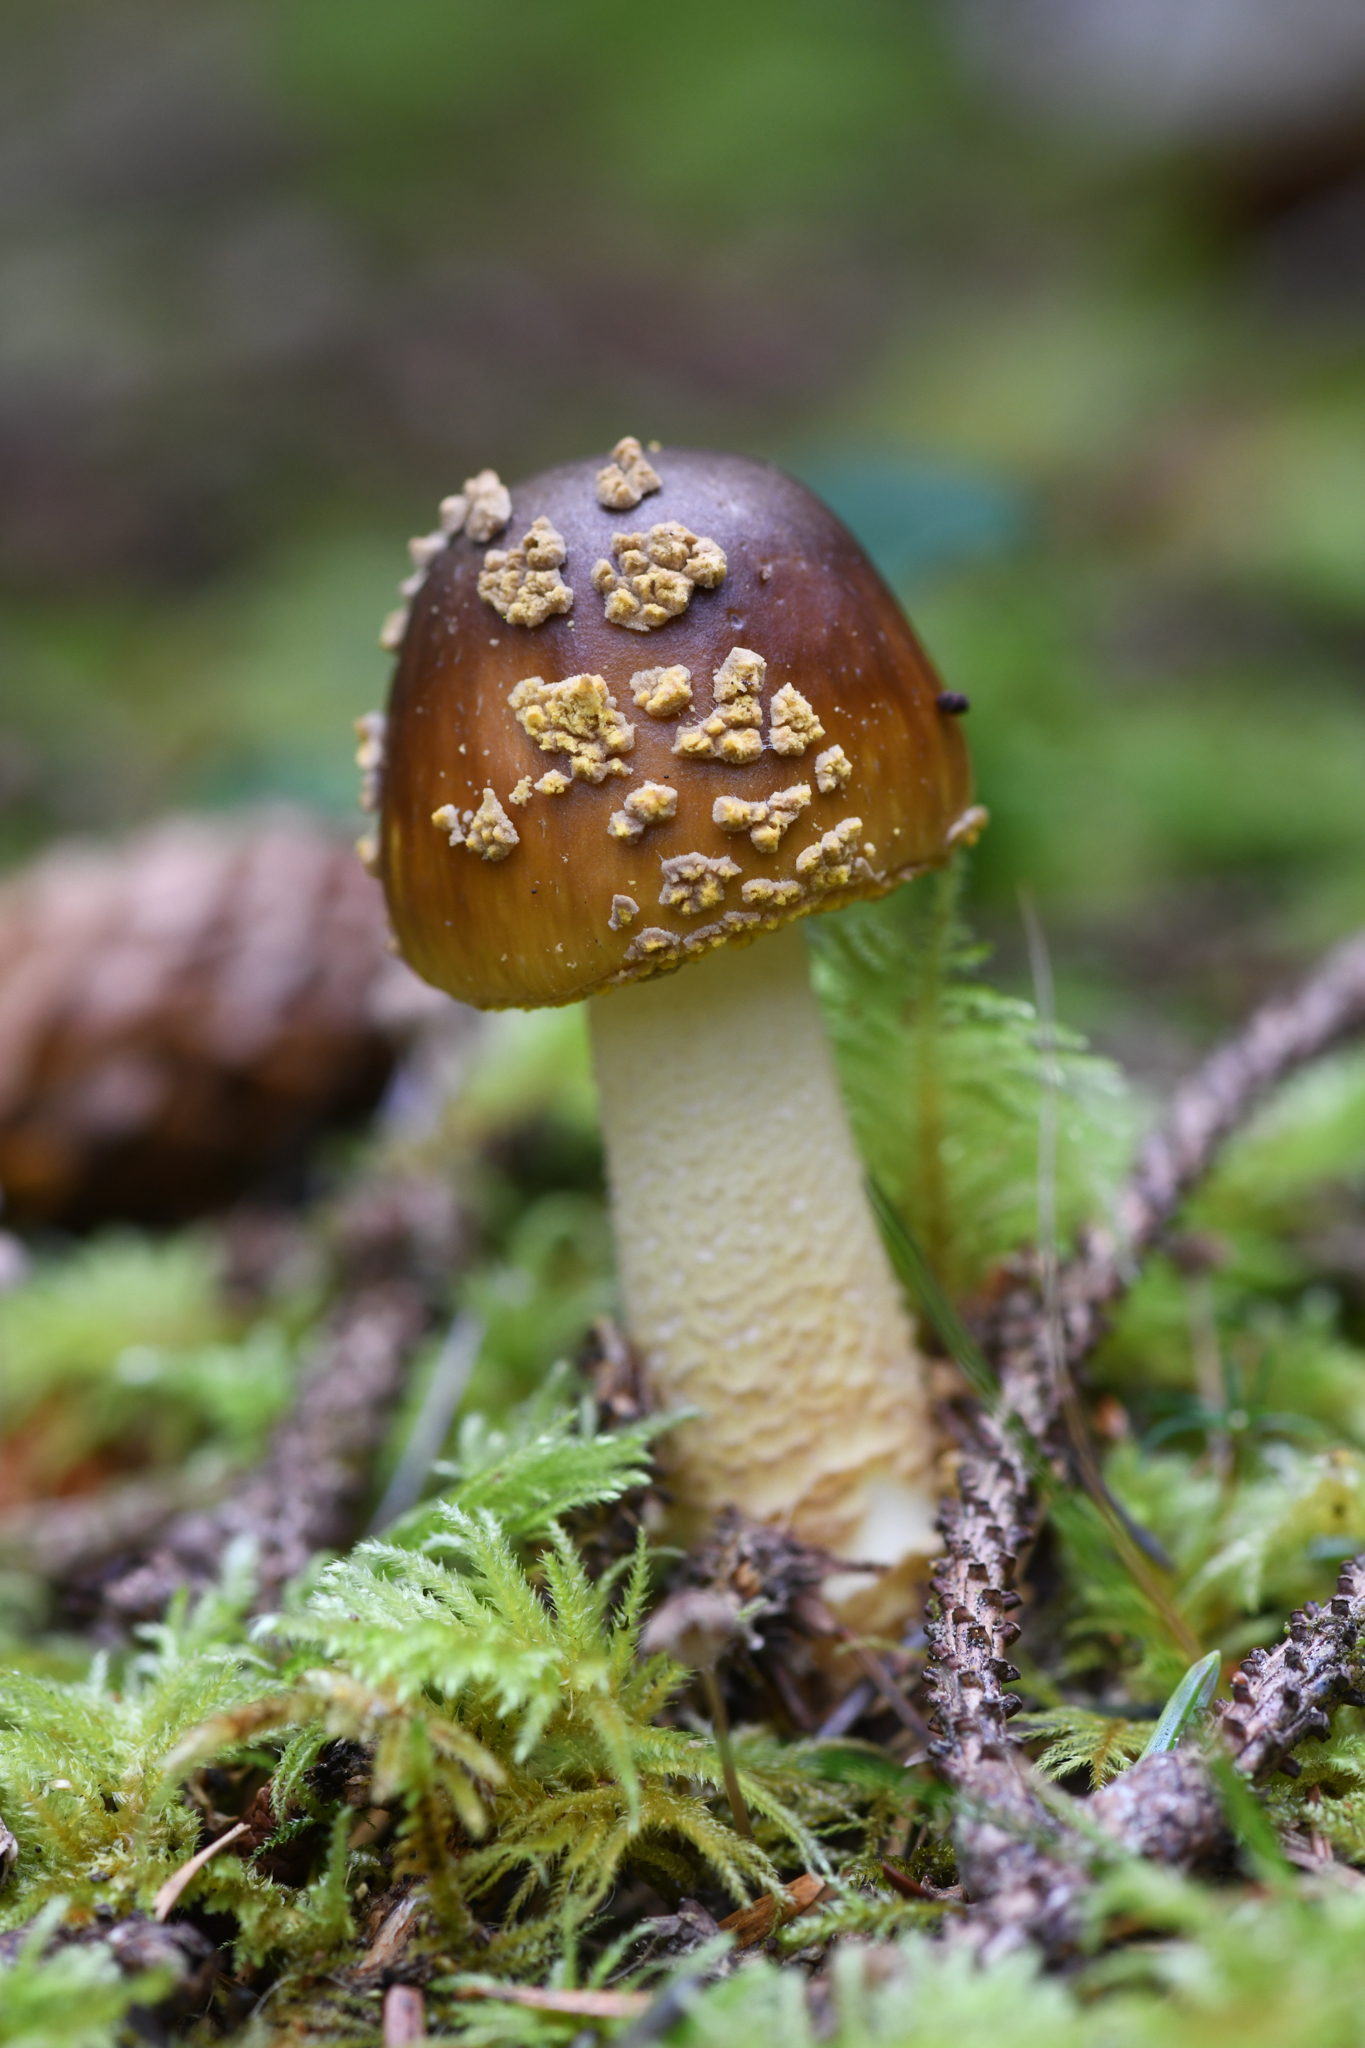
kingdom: Fungi
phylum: Basidiomycota
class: Agaricomycetes
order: Agaricales
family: Amanitaceae
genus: Amanita
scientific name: Amanita augusta
